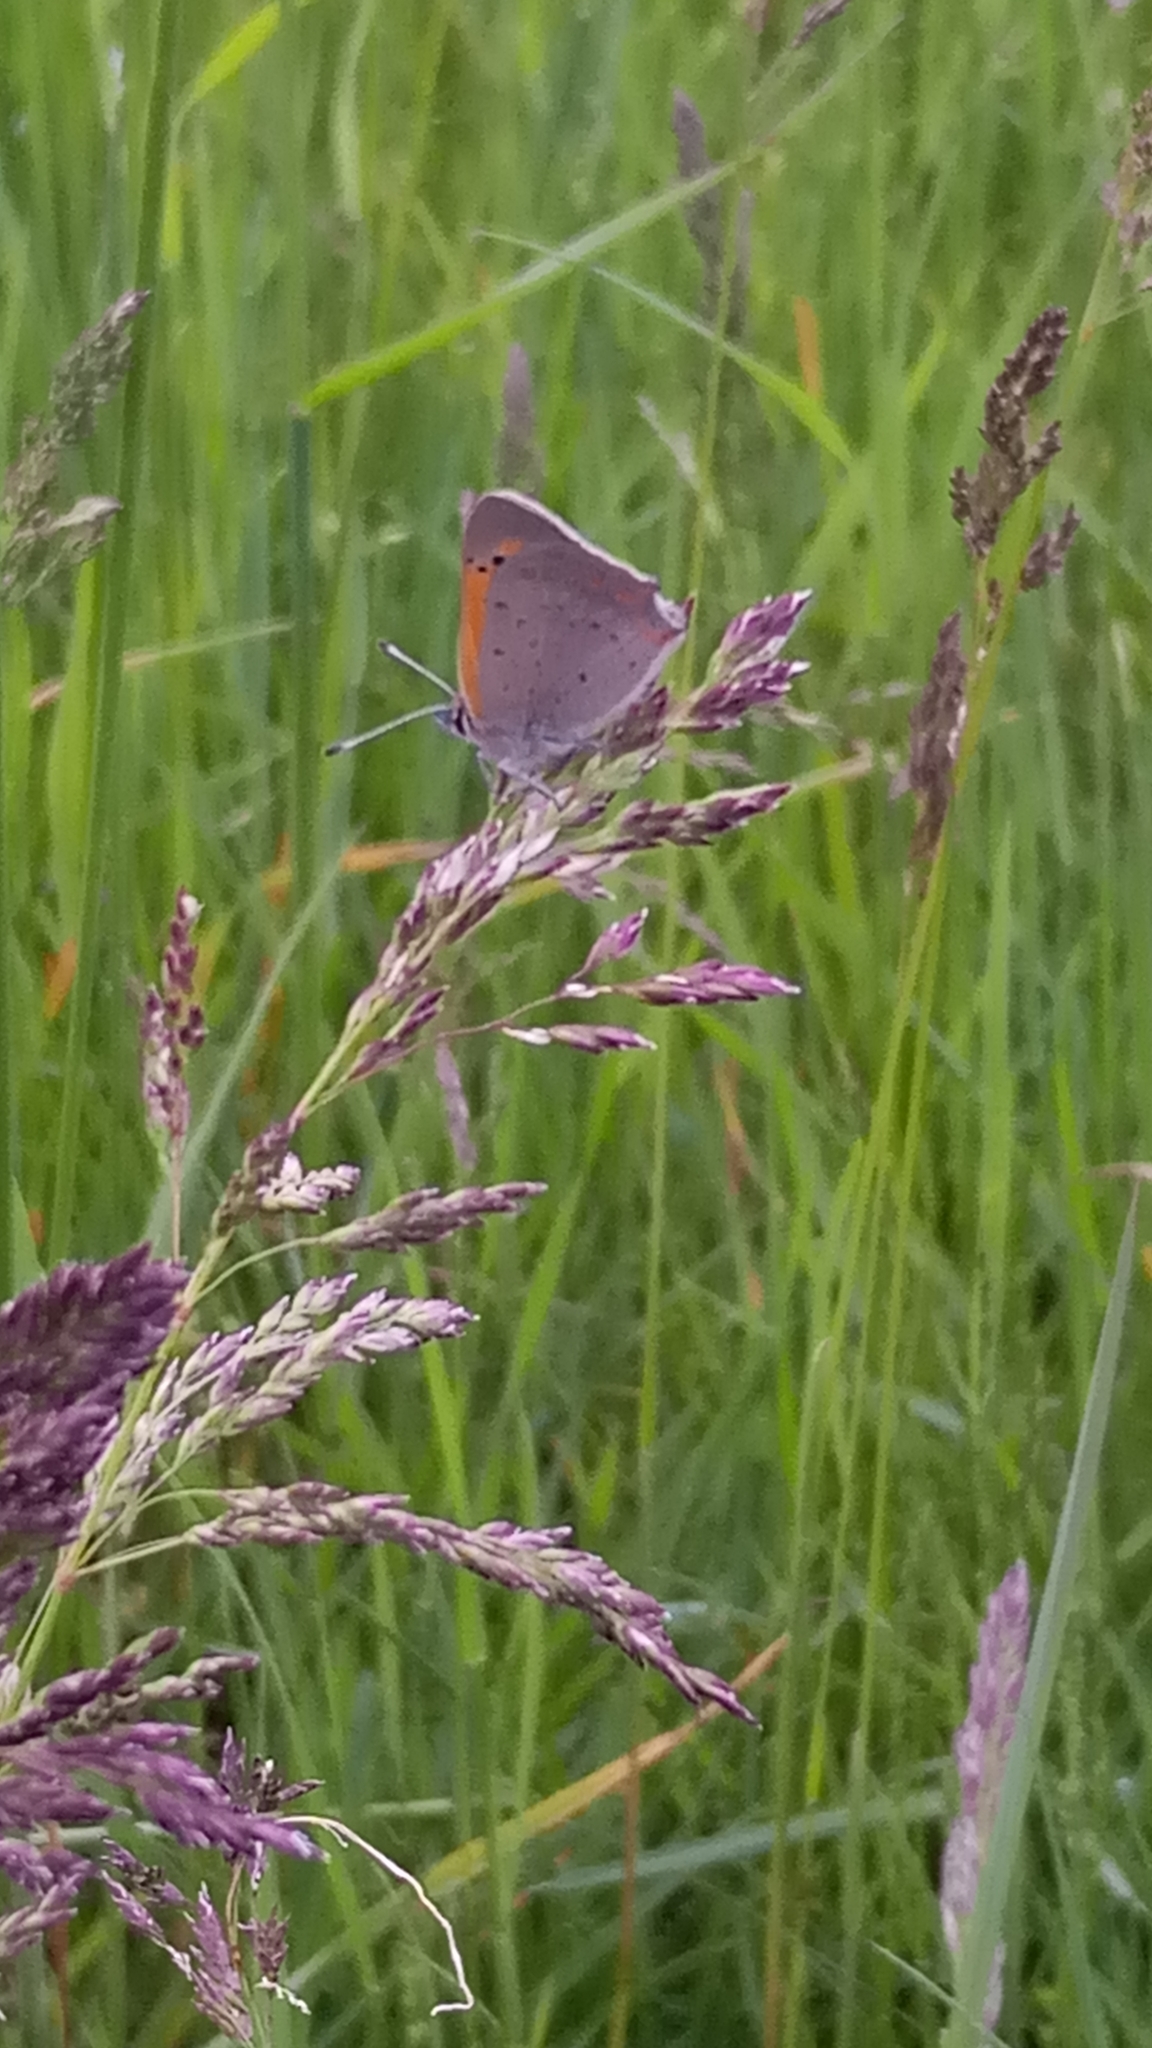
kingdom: Animalia
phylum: Arthropoda
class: Insecta
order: Lepidoptera
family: Lycaenidae
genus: Lycaena
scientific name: Lycaena phlaeas
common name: Small copper
